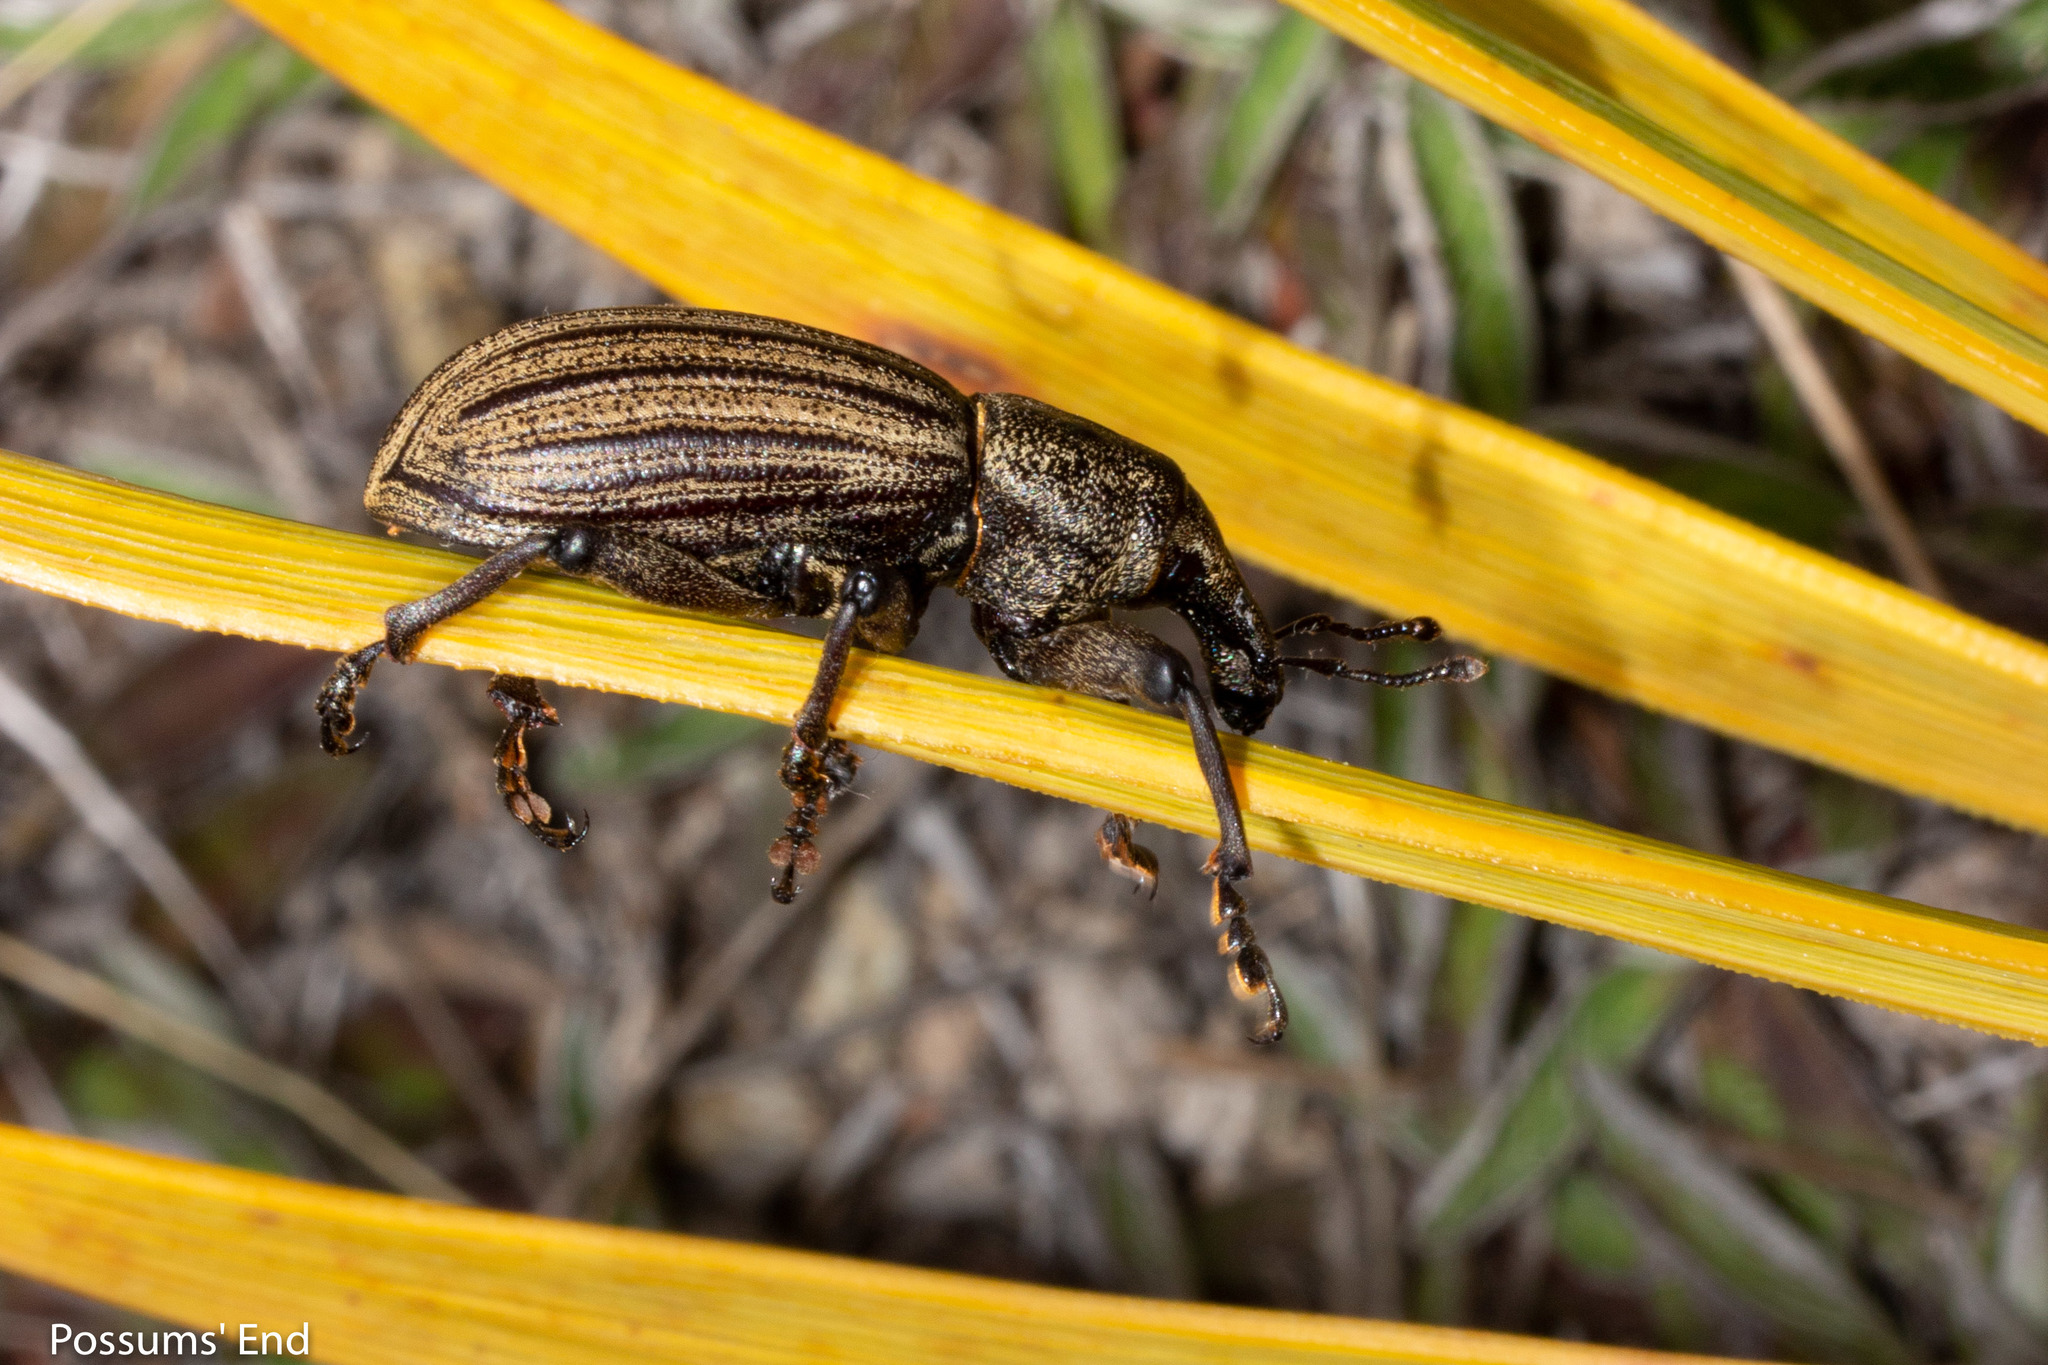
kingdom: Animalia
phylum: Arthropoda
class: Insecta
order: Coleoptera
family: Curculionidae
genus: Lyperobius
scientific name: Lyperobius barbarae
